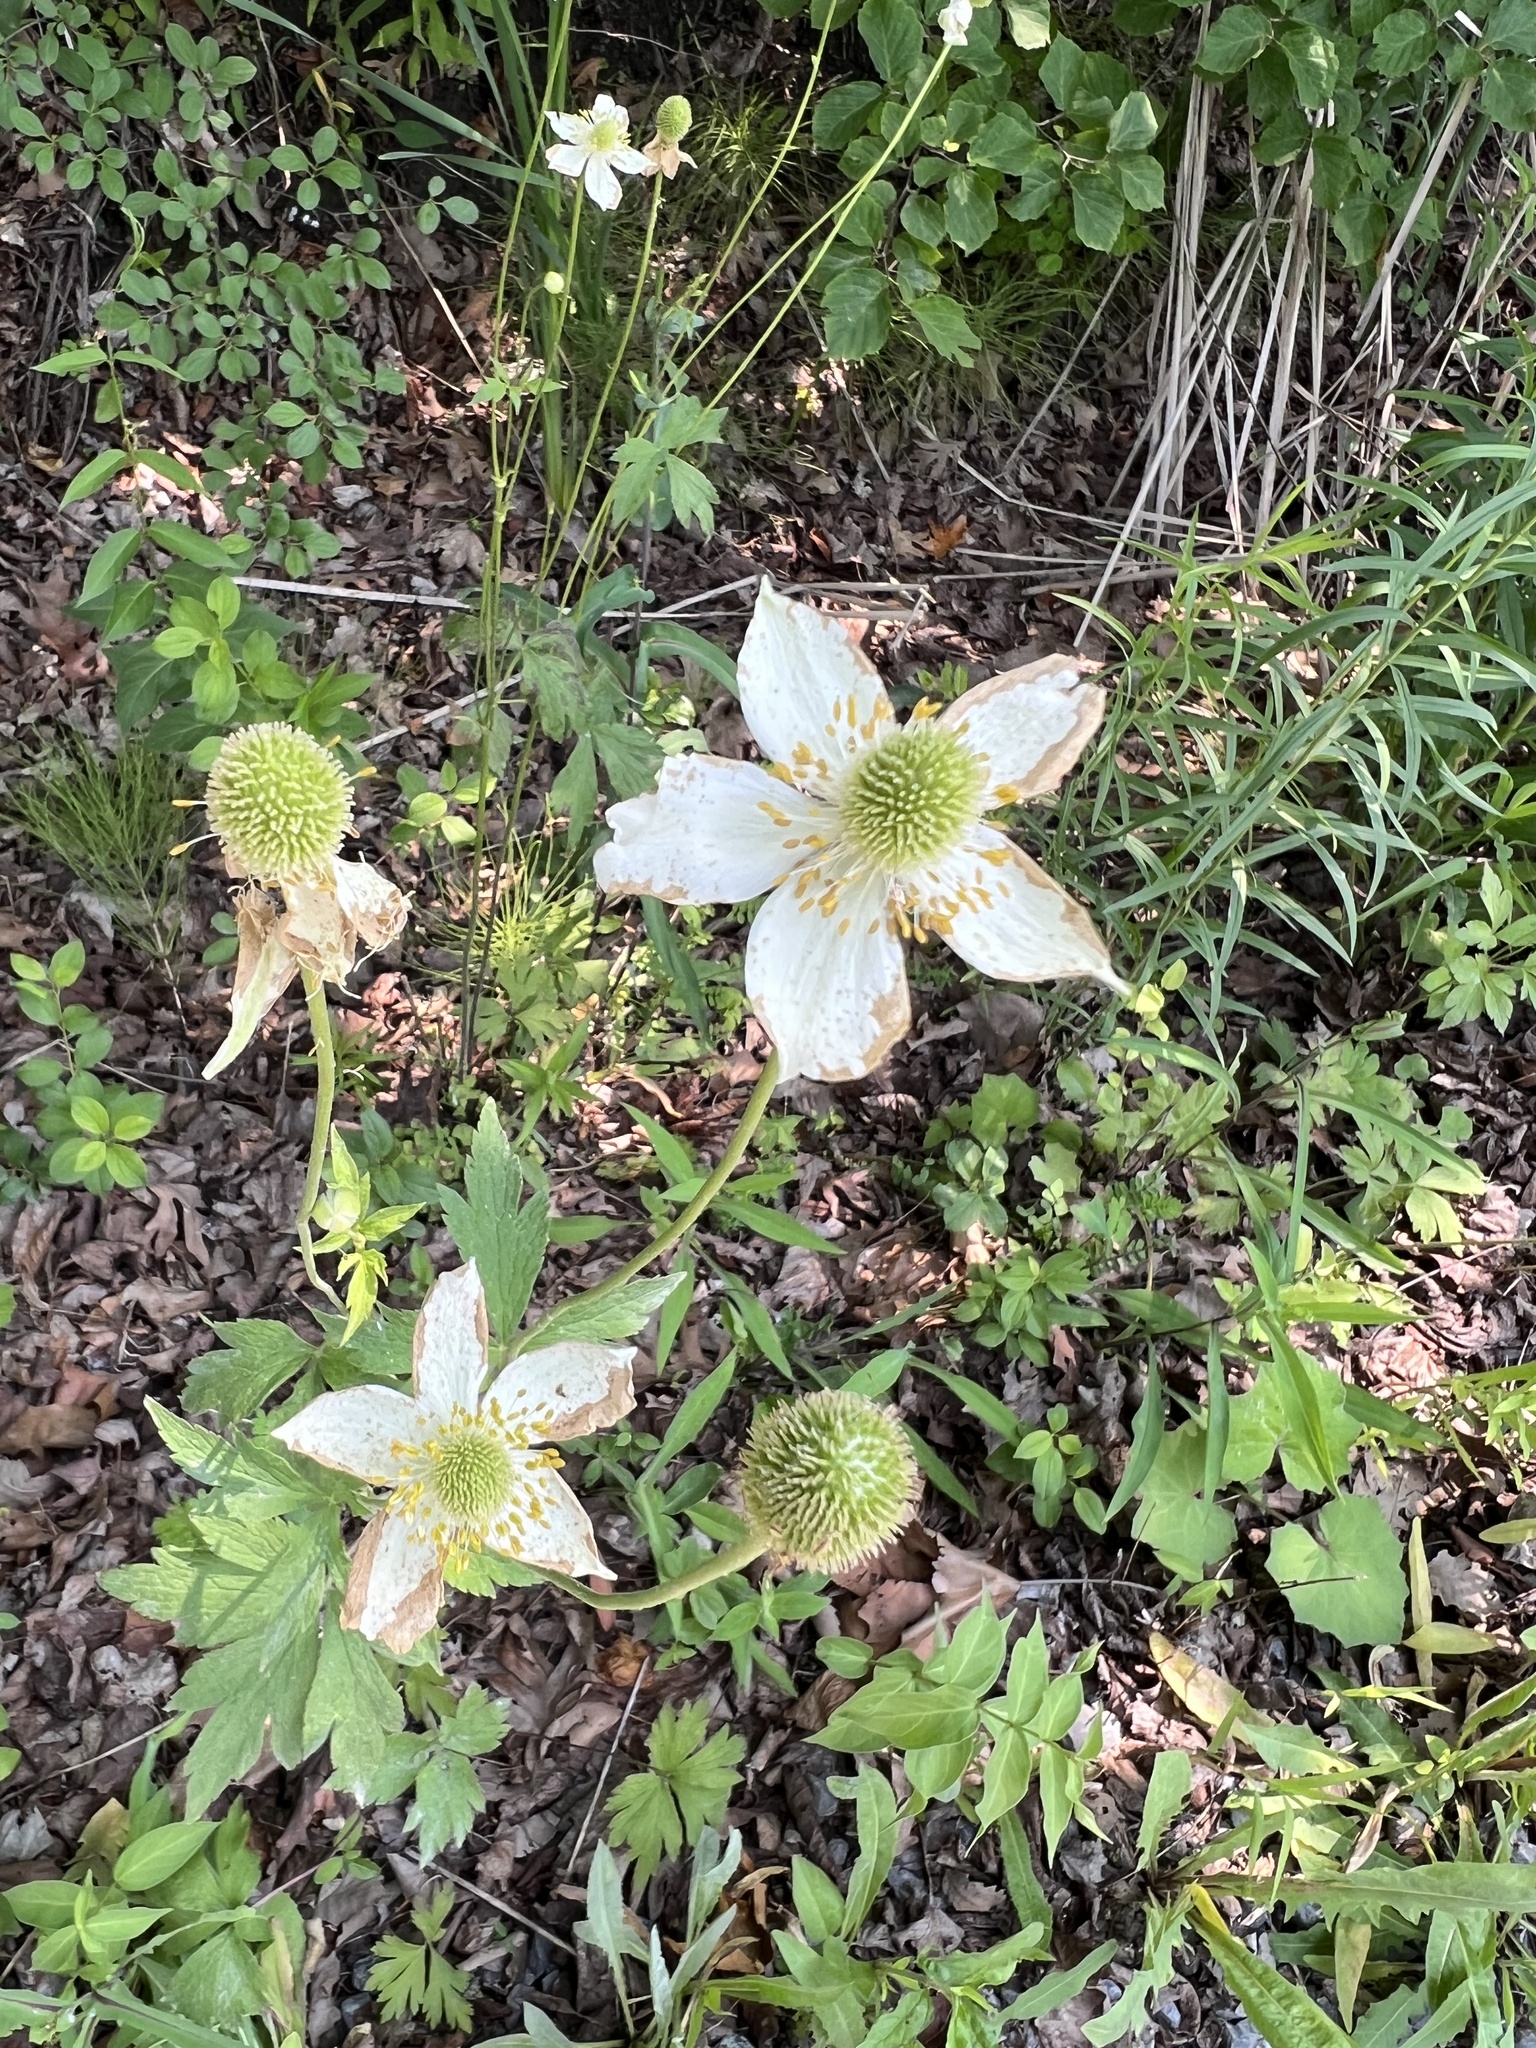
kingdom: Plantae
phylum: Tracheophyta
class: Magnoliopsida
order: Ranunculales
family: Ranunculaceae
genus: Anemone
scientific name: Anemone virginiana
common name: Tall anemone
